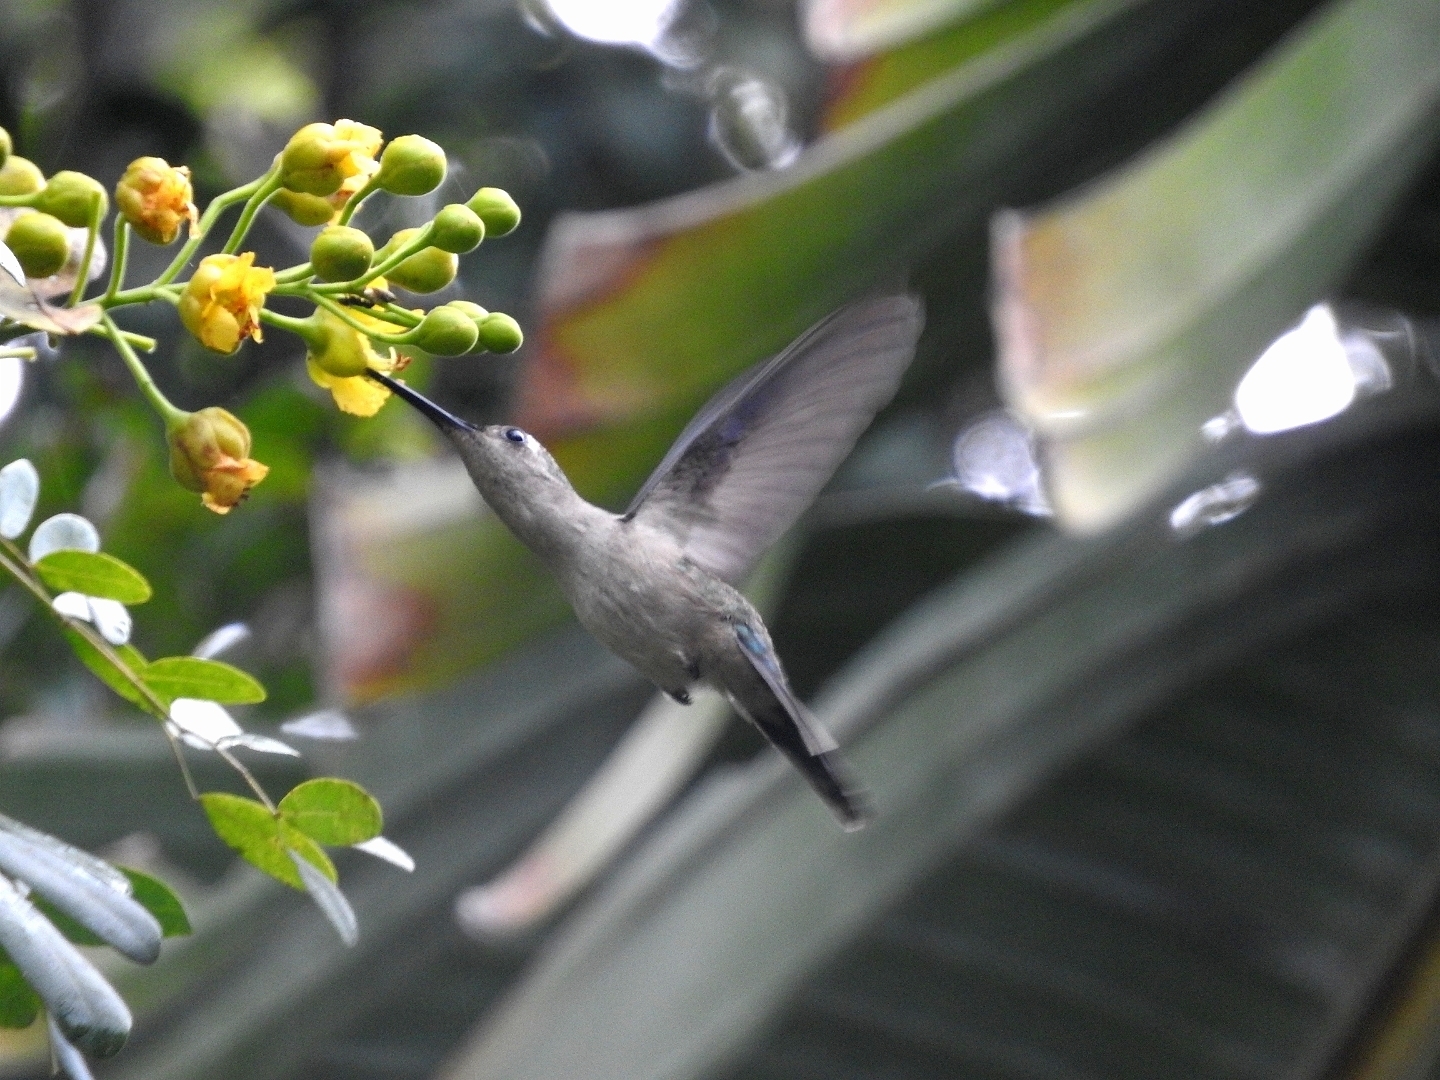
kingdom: Animalia
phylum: Chordata
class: Aves
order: Apodiformes
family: Trochilidae
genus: Pampa
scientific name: Pampa curvipennis
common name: Curve-winged sabrewing
